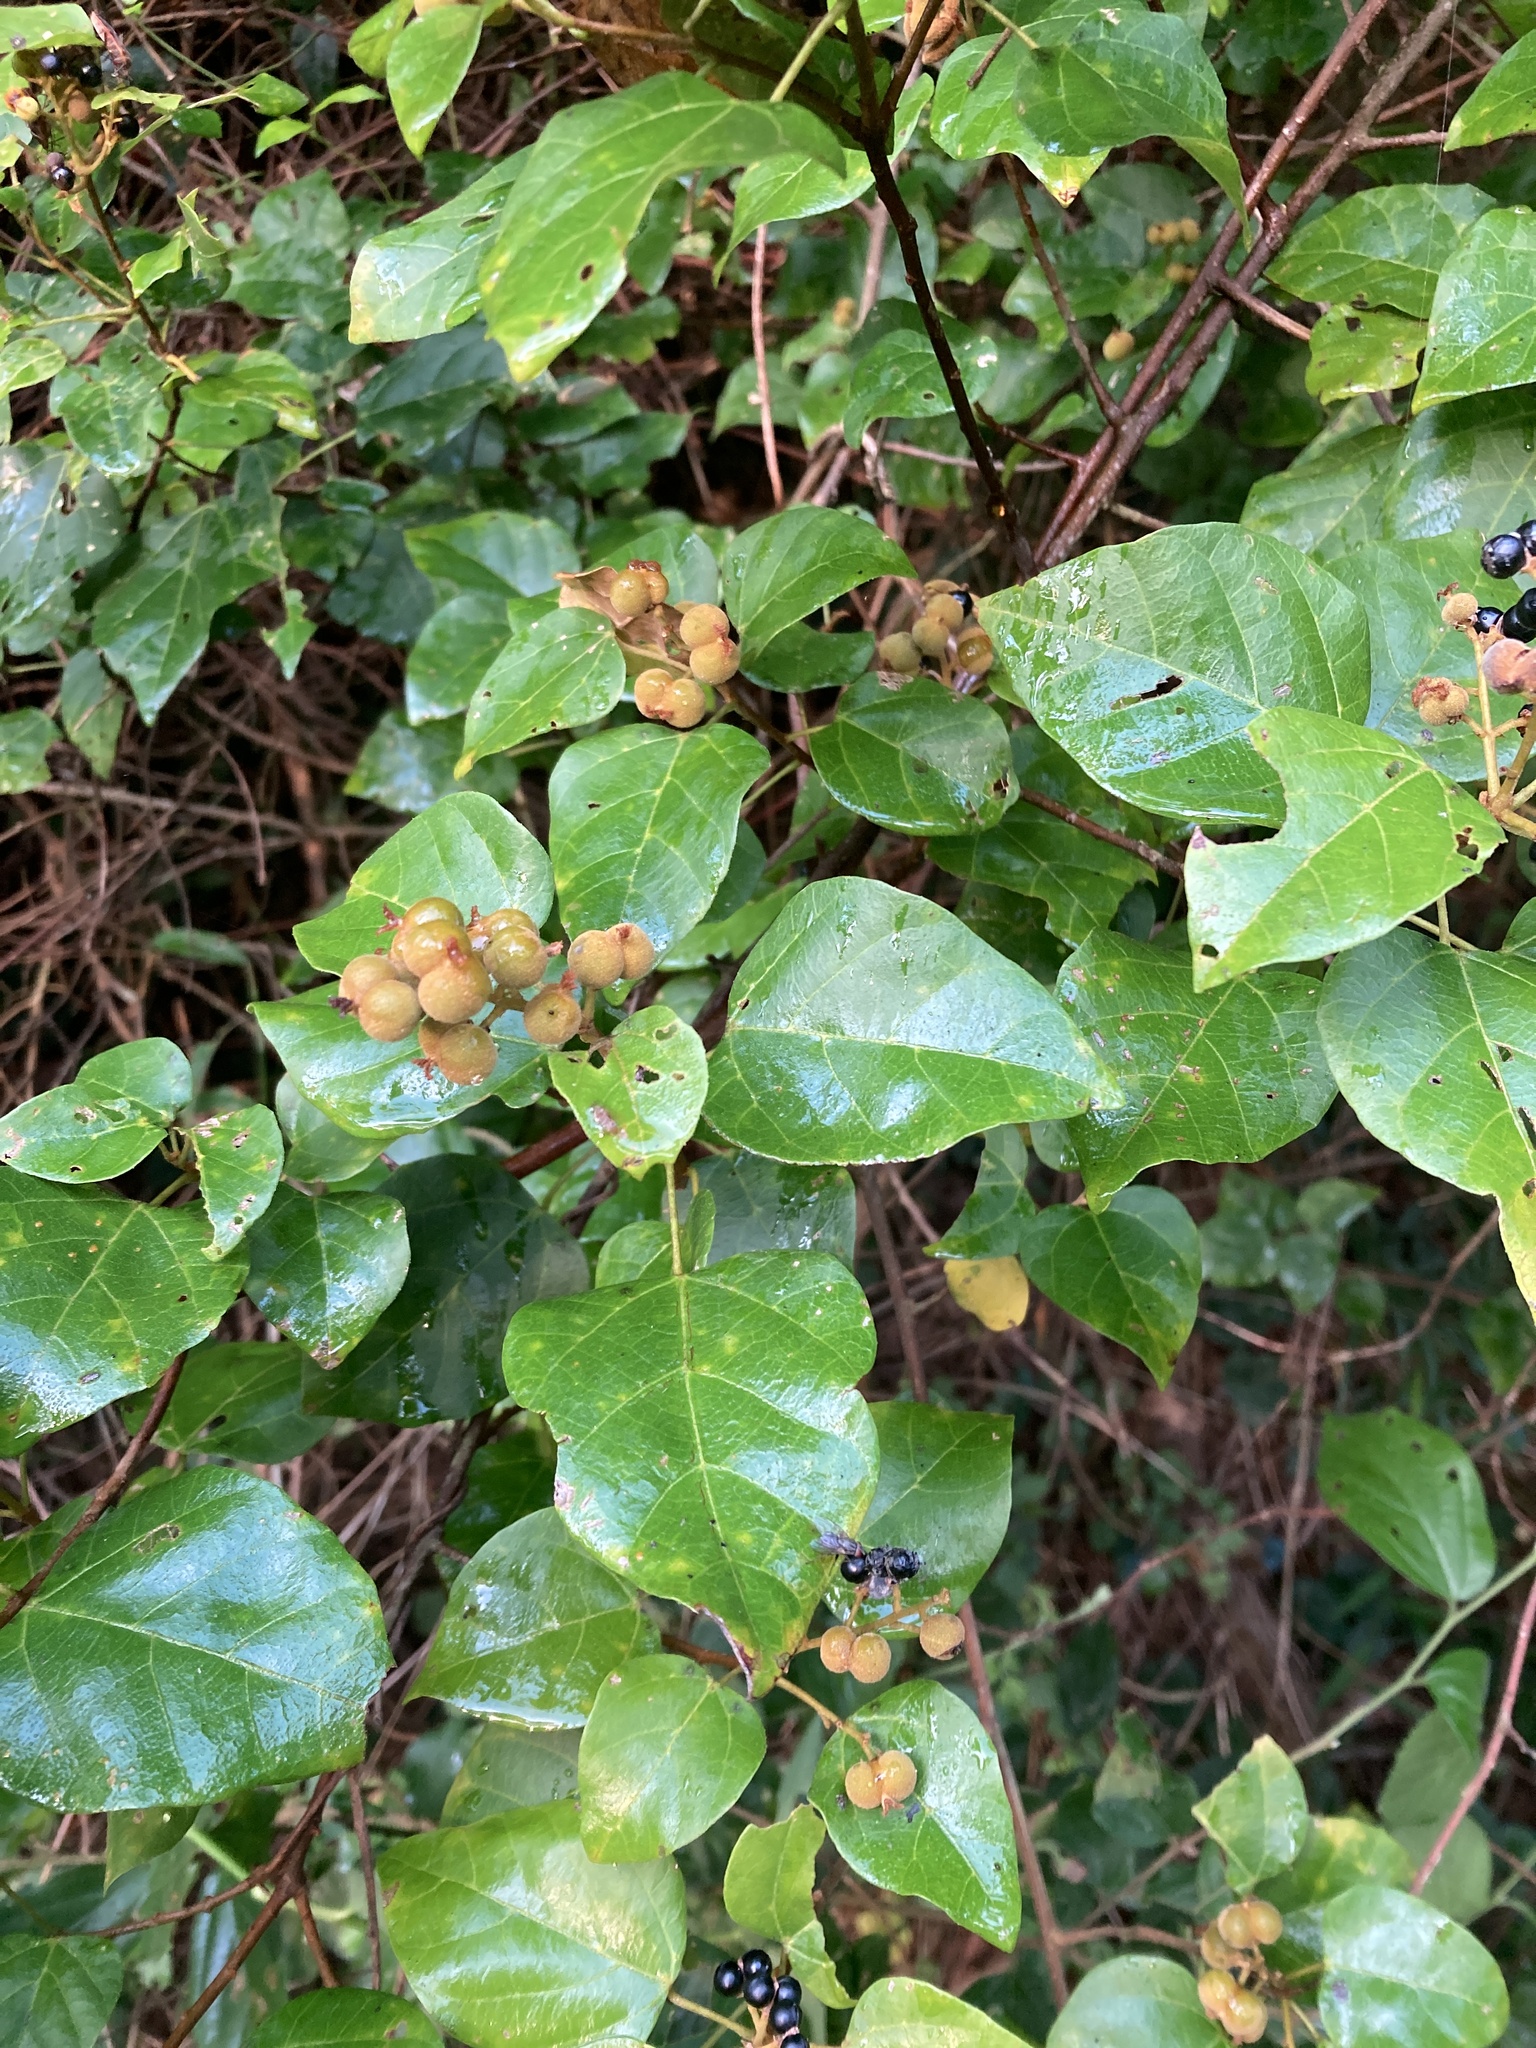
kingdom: Plantae
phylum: Tracheophyta
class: Magnoliopsida
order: Malpighiales
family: Euphorbiaceae
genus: Mallotus
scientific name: Mallotus repandus
